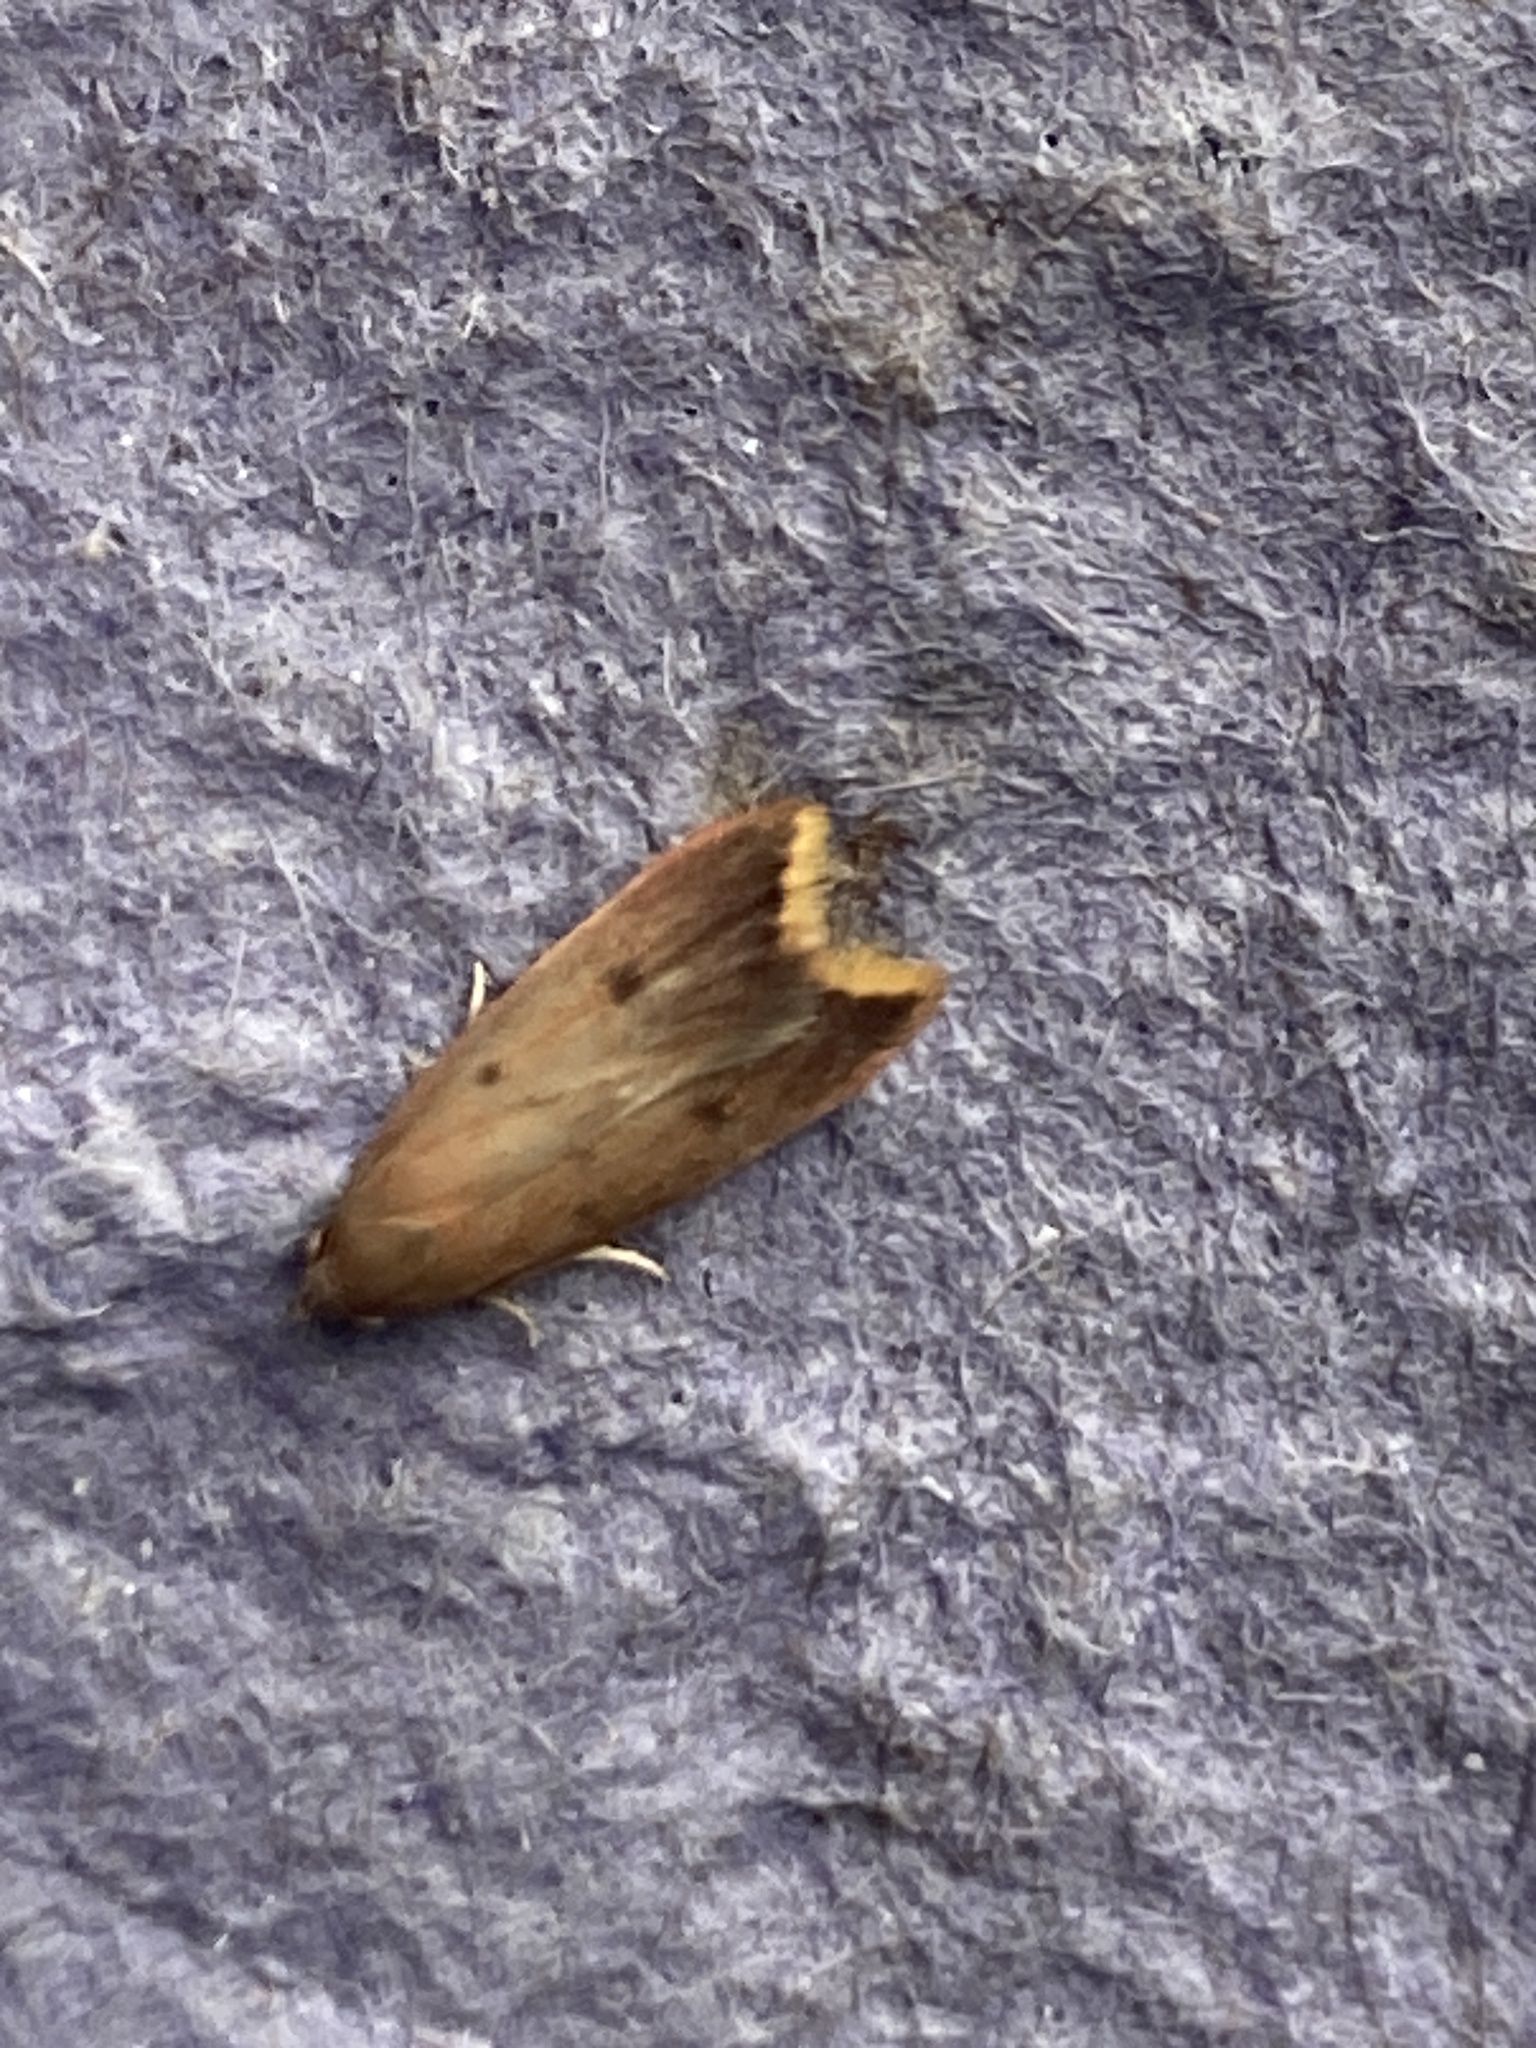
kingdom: Animalia
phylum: Arthropoda
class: Insecta
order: Lepidoptera
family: Oecophoridae
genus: Tachystola
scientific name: Tachystola acroxantha
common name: Ruddy streak
